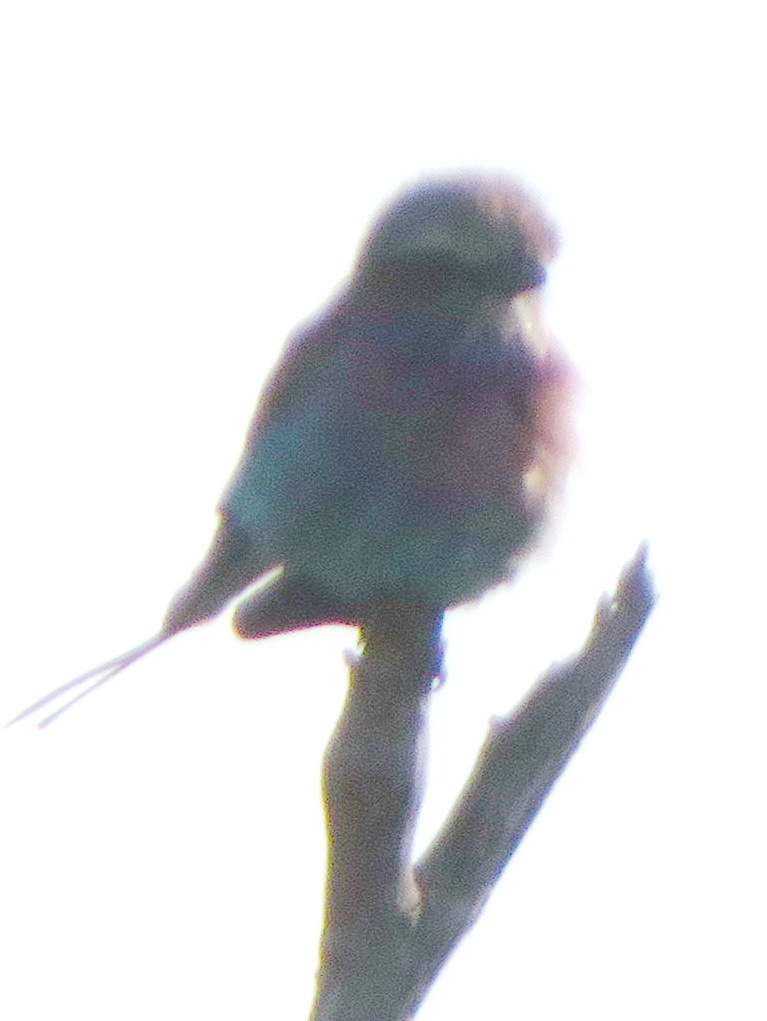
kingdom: Animalia
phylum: Chordata
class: Aves
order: Coraciiformes
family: Coraciidae
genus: Coracias
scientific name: Coracias caudatus
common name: Lilac-breasted roller
